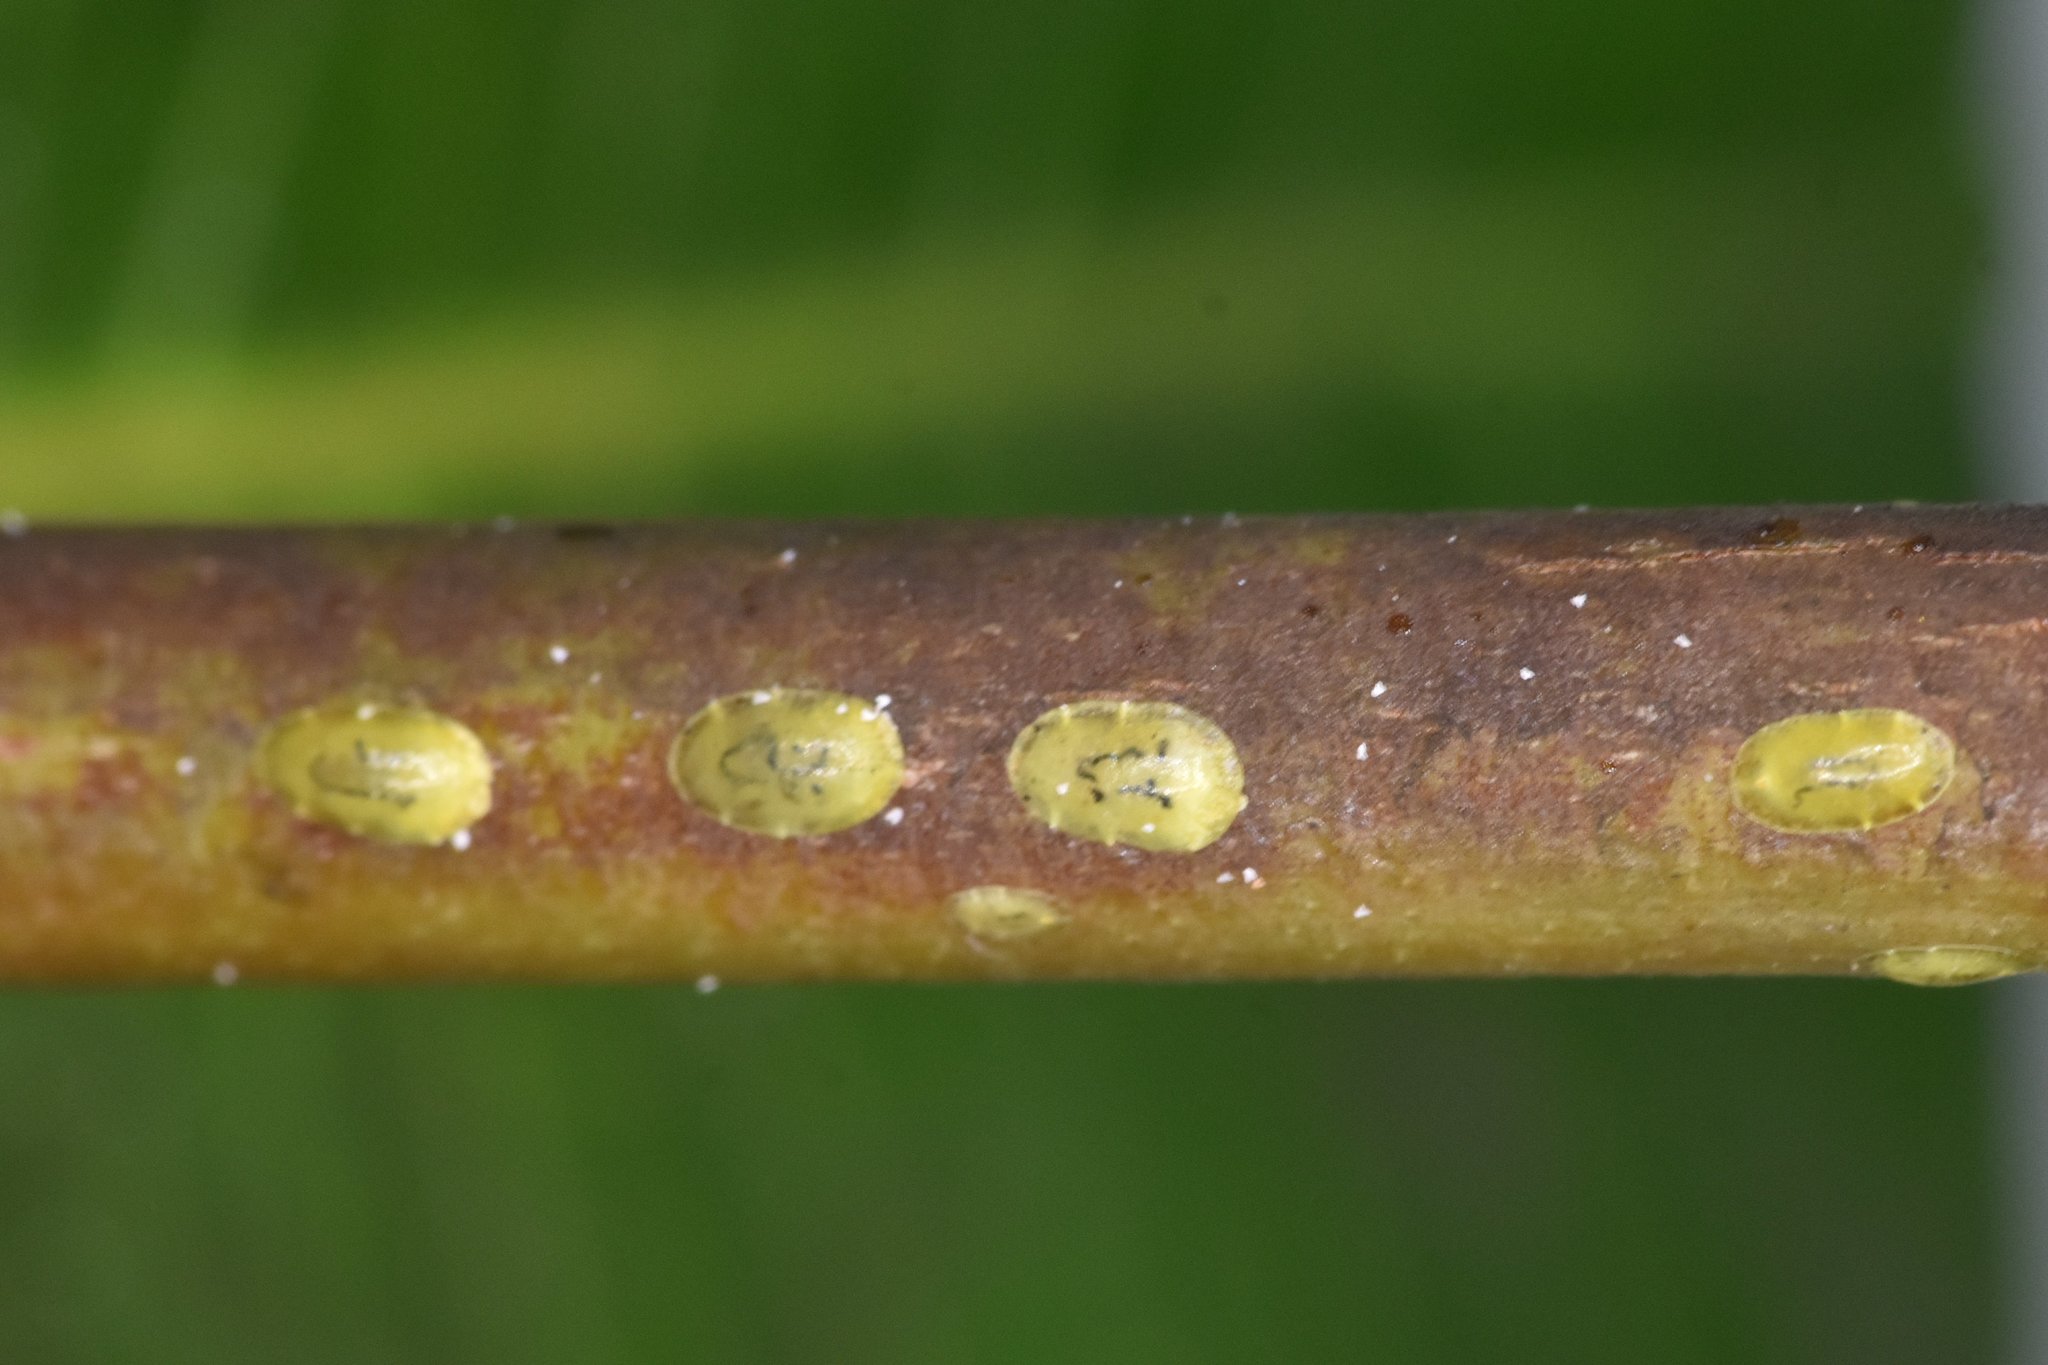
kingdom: Animalia
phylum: Arthropoda
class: Insecta
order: Hemiptera
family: Coccidae
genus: Coccus
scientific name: Coccus viridis
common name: Green scale
